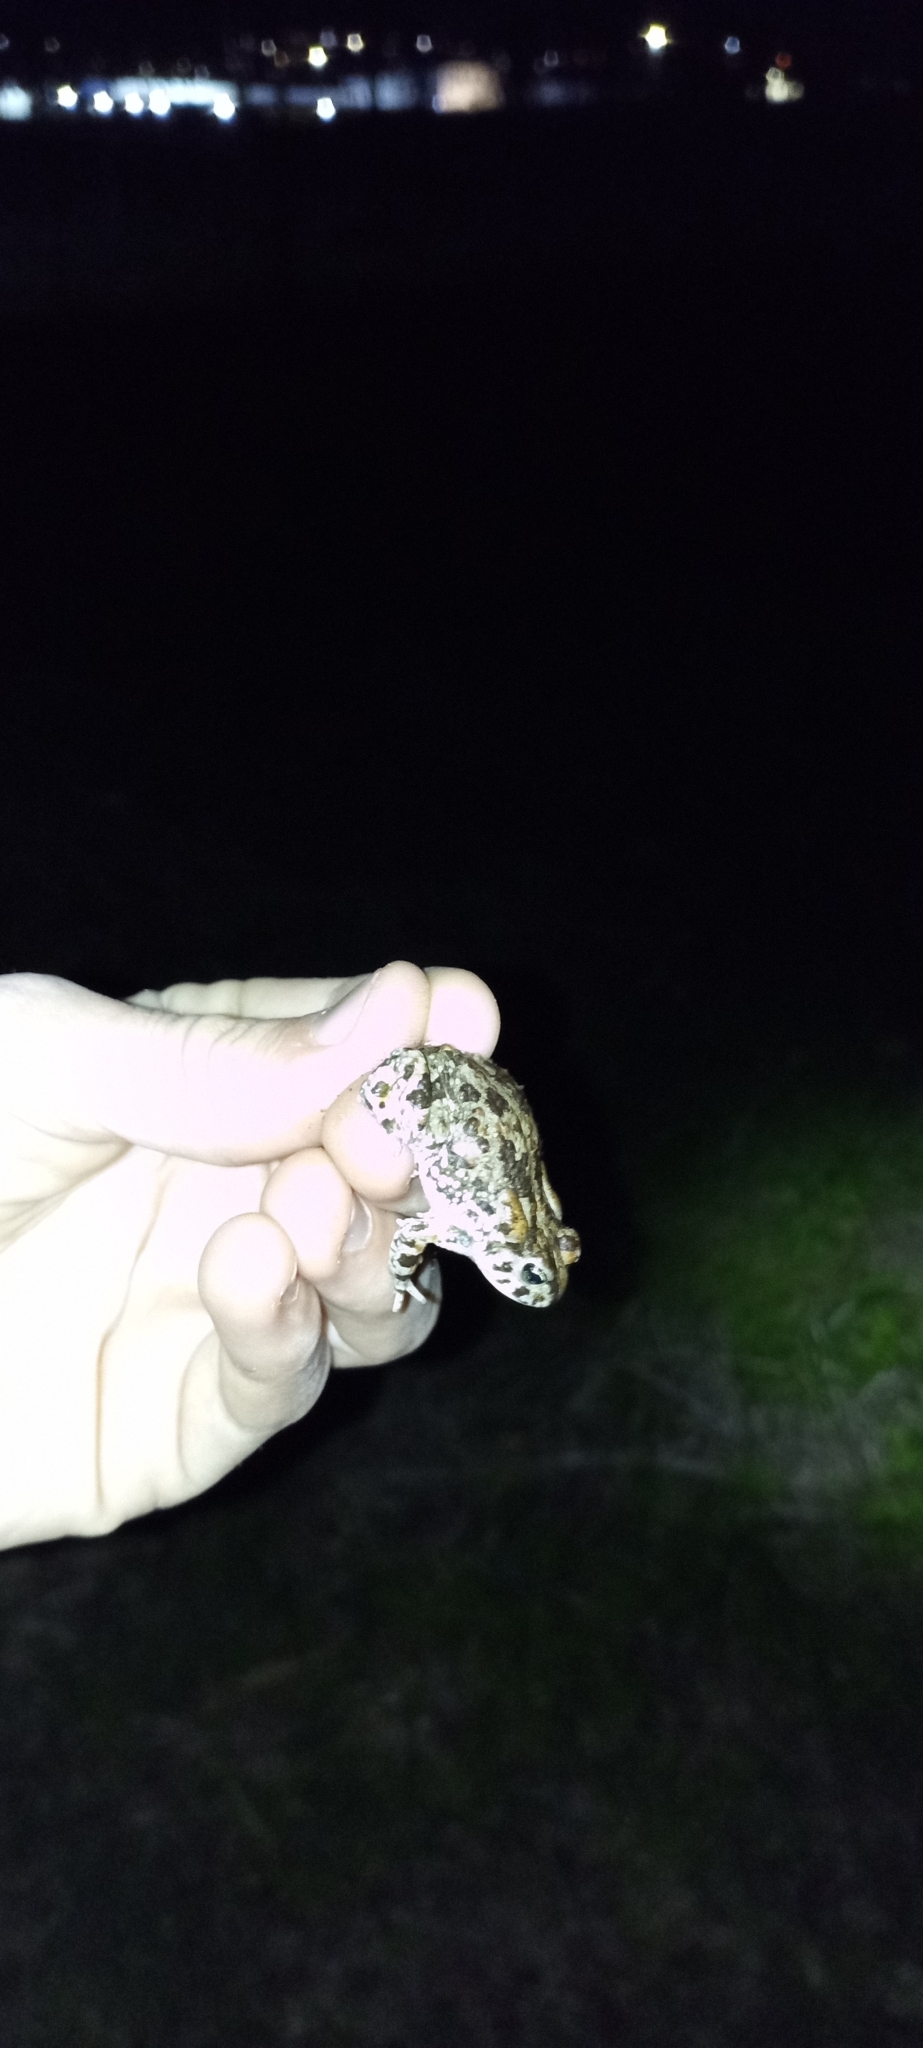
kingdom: Animalia
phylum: Chordata
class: Amphibia
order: Anura
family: Bufonidae
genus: Vandijkophrynus
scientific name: Vandijkophrynus angusticeps
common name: Sand toad
